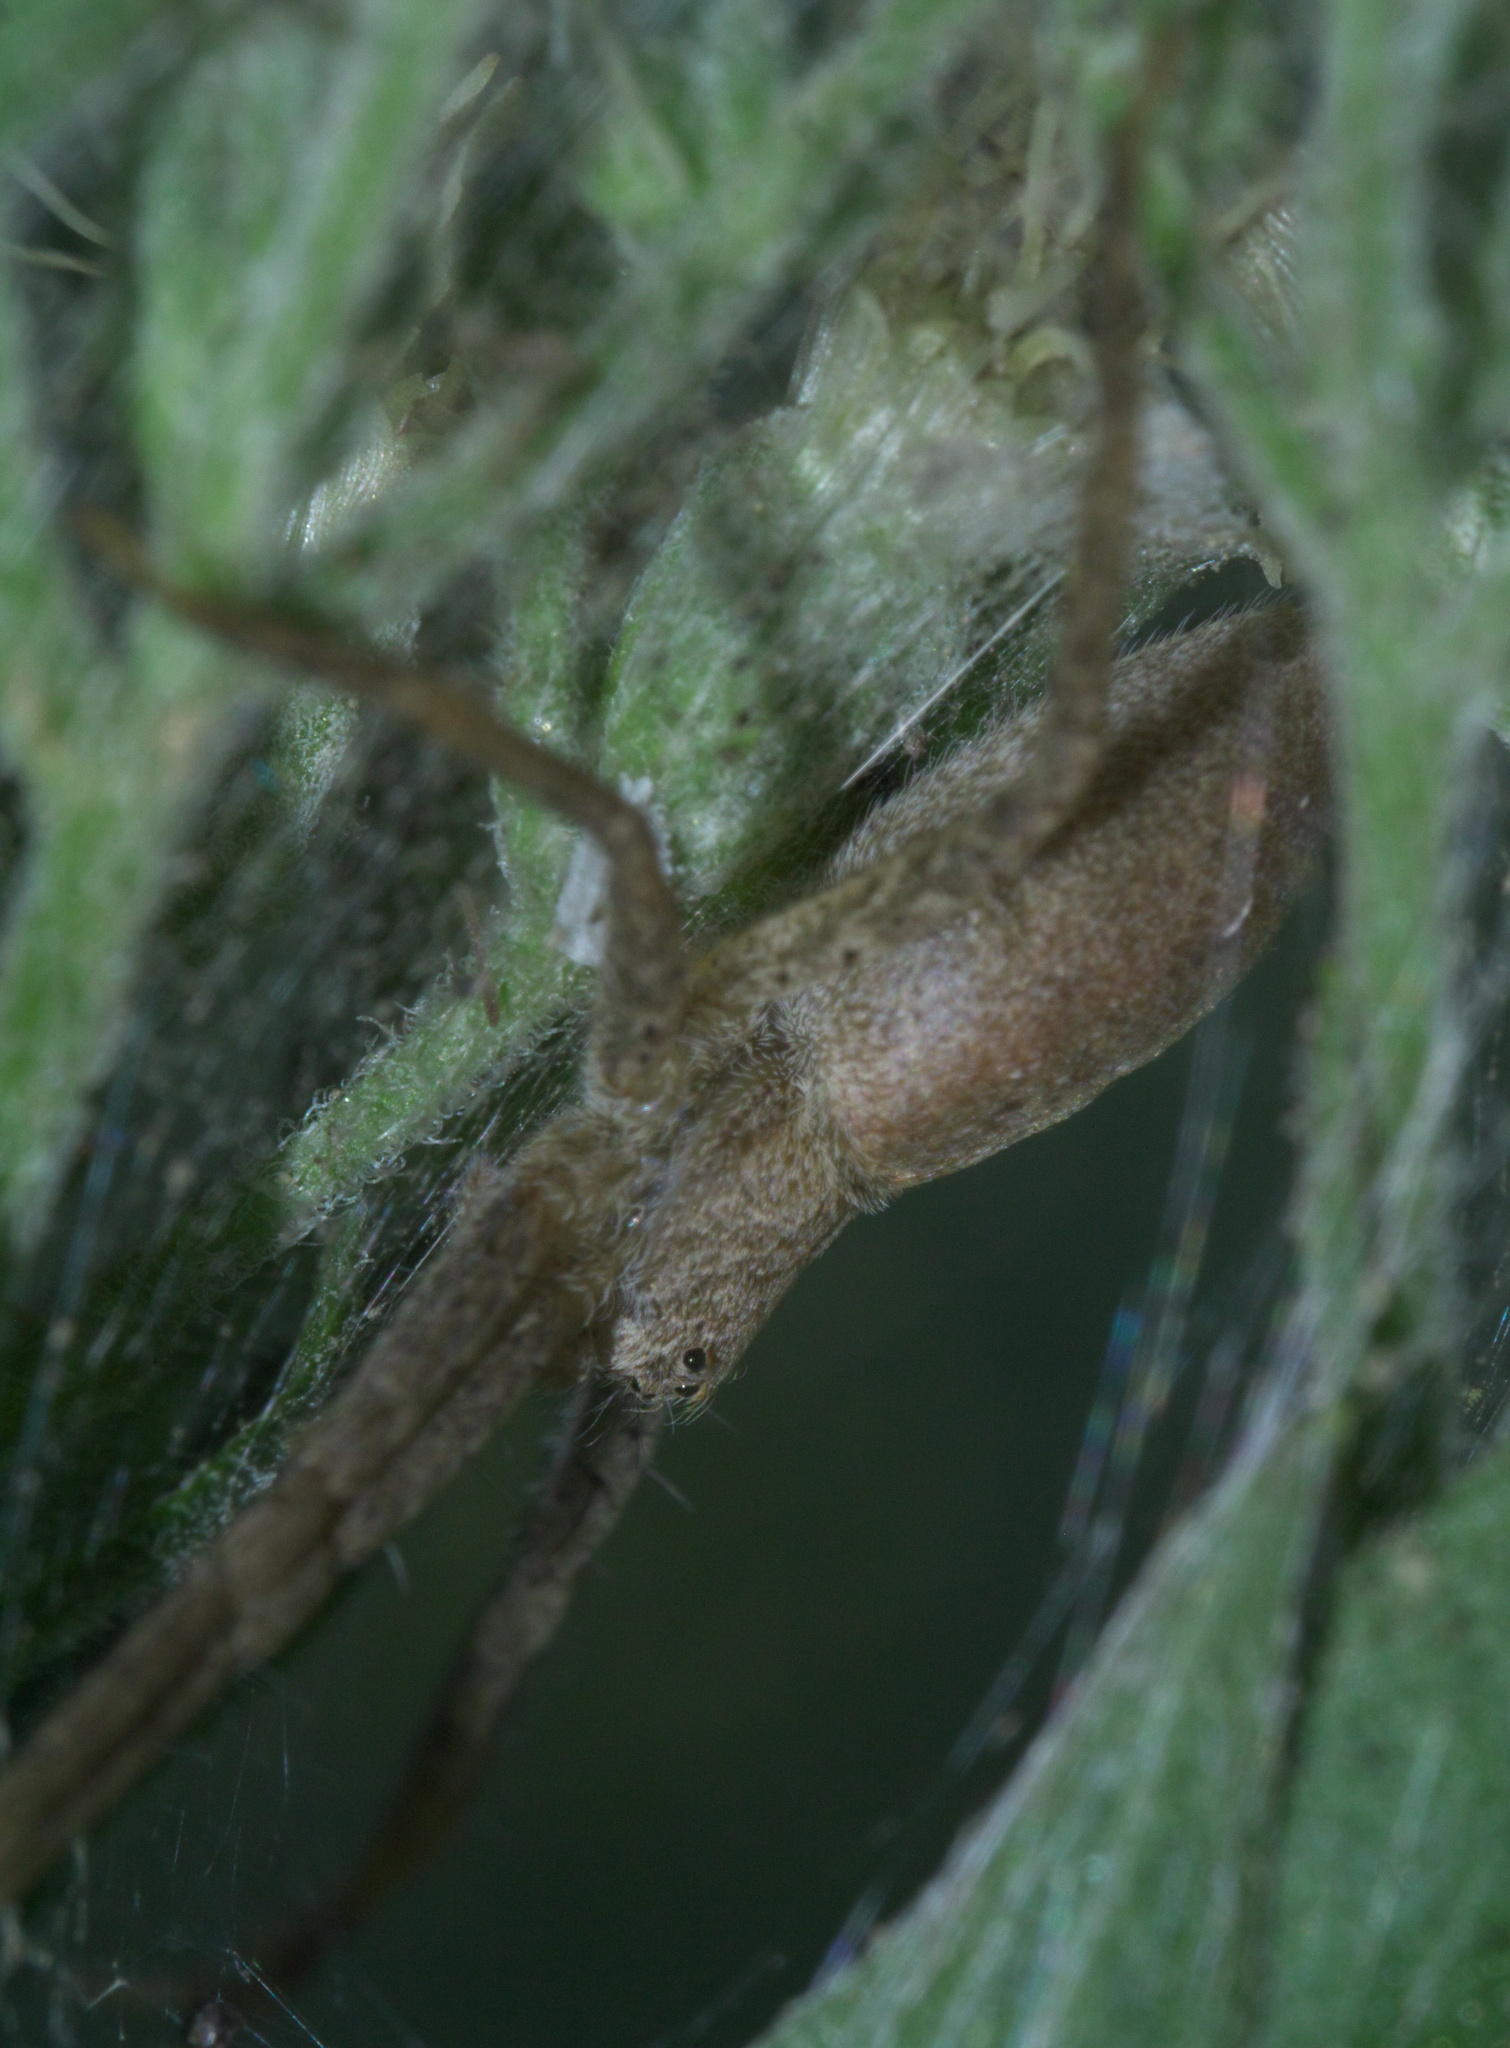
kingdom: Animalia
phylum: Arthropoda
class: Arachnida
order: Araneae
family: Pisauridae
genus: Pisaurina
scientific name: Pisaurina mira
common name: American nursery web spider
